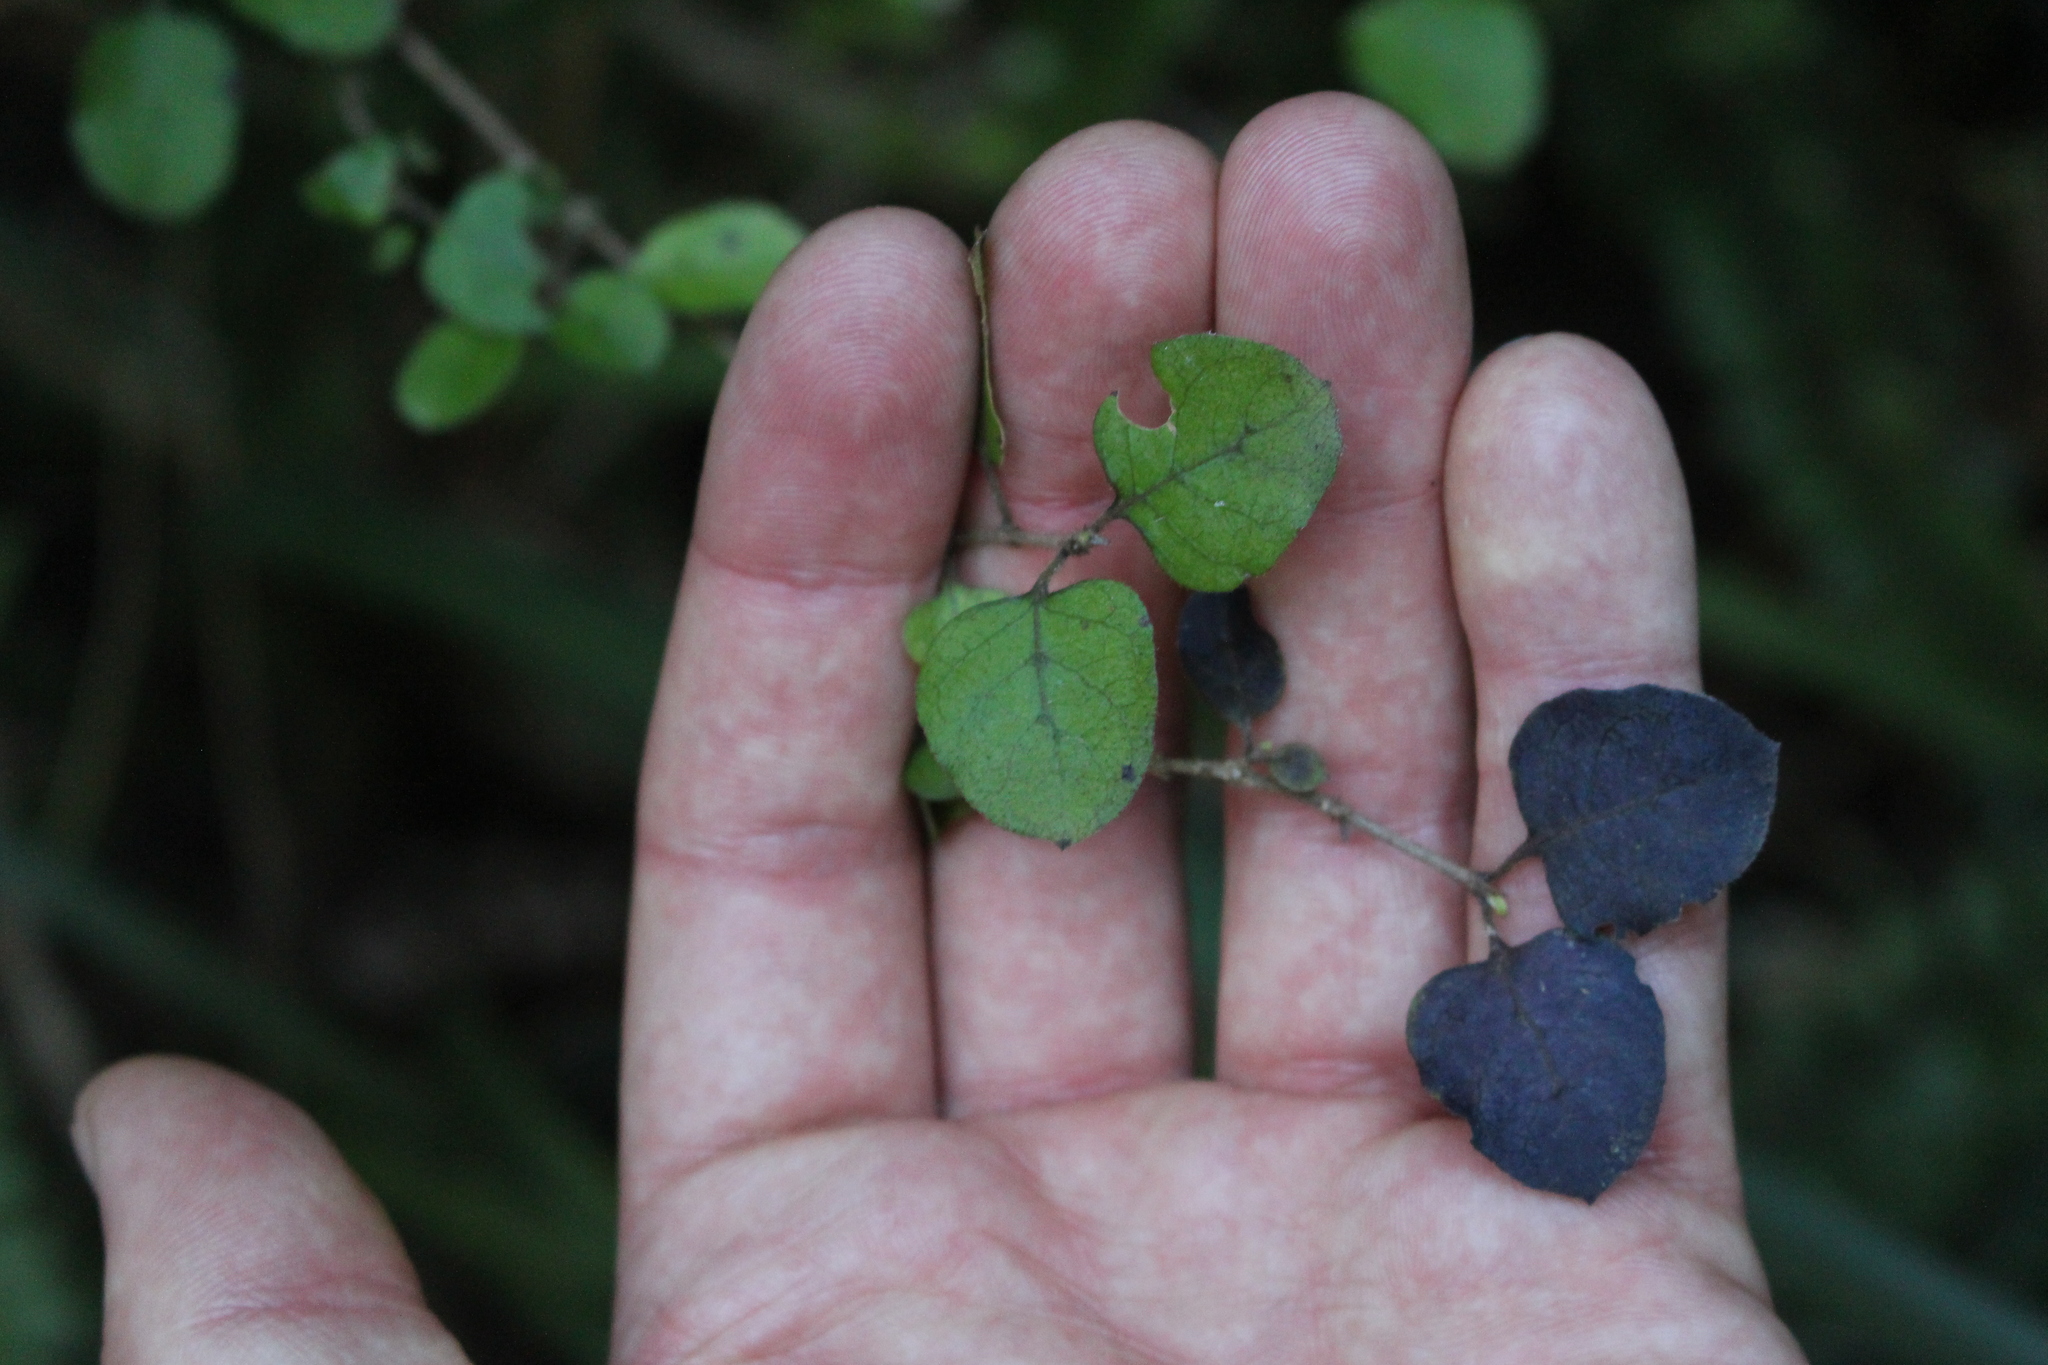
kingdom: Plantae
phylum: Tracheophyta
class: Magnoliopsida
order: Gentianales
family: Rubiaceae
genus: Coprosma
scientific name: Coprosma rotundifolia
